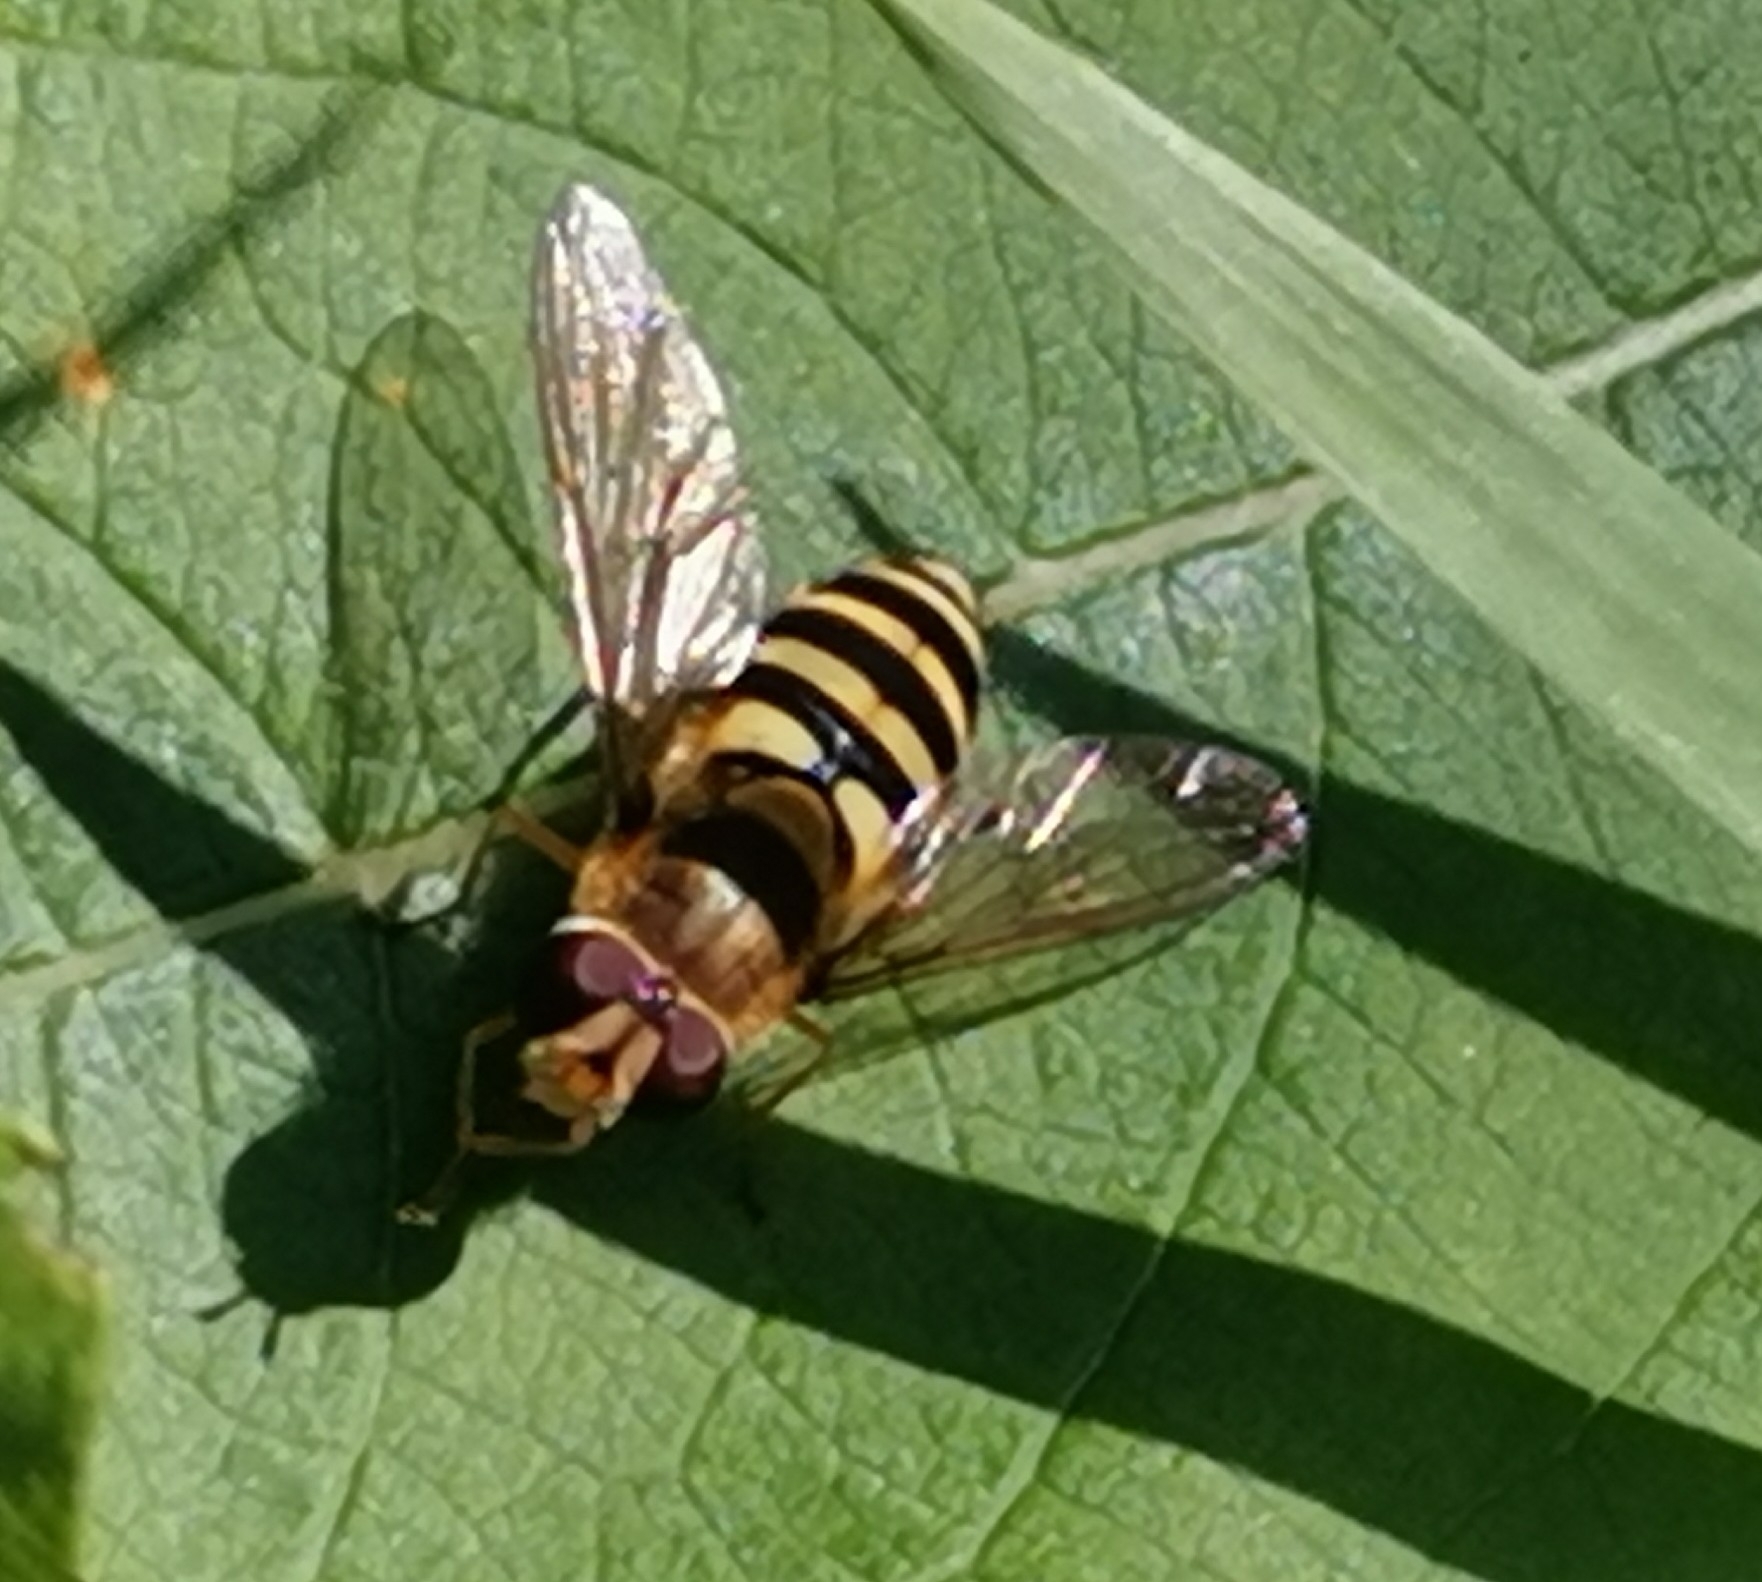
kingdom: Animalia
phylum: Arthropoda
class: Insecta
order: Diptera
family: Syrphidae
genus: Syrphus
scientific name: Syrphus
